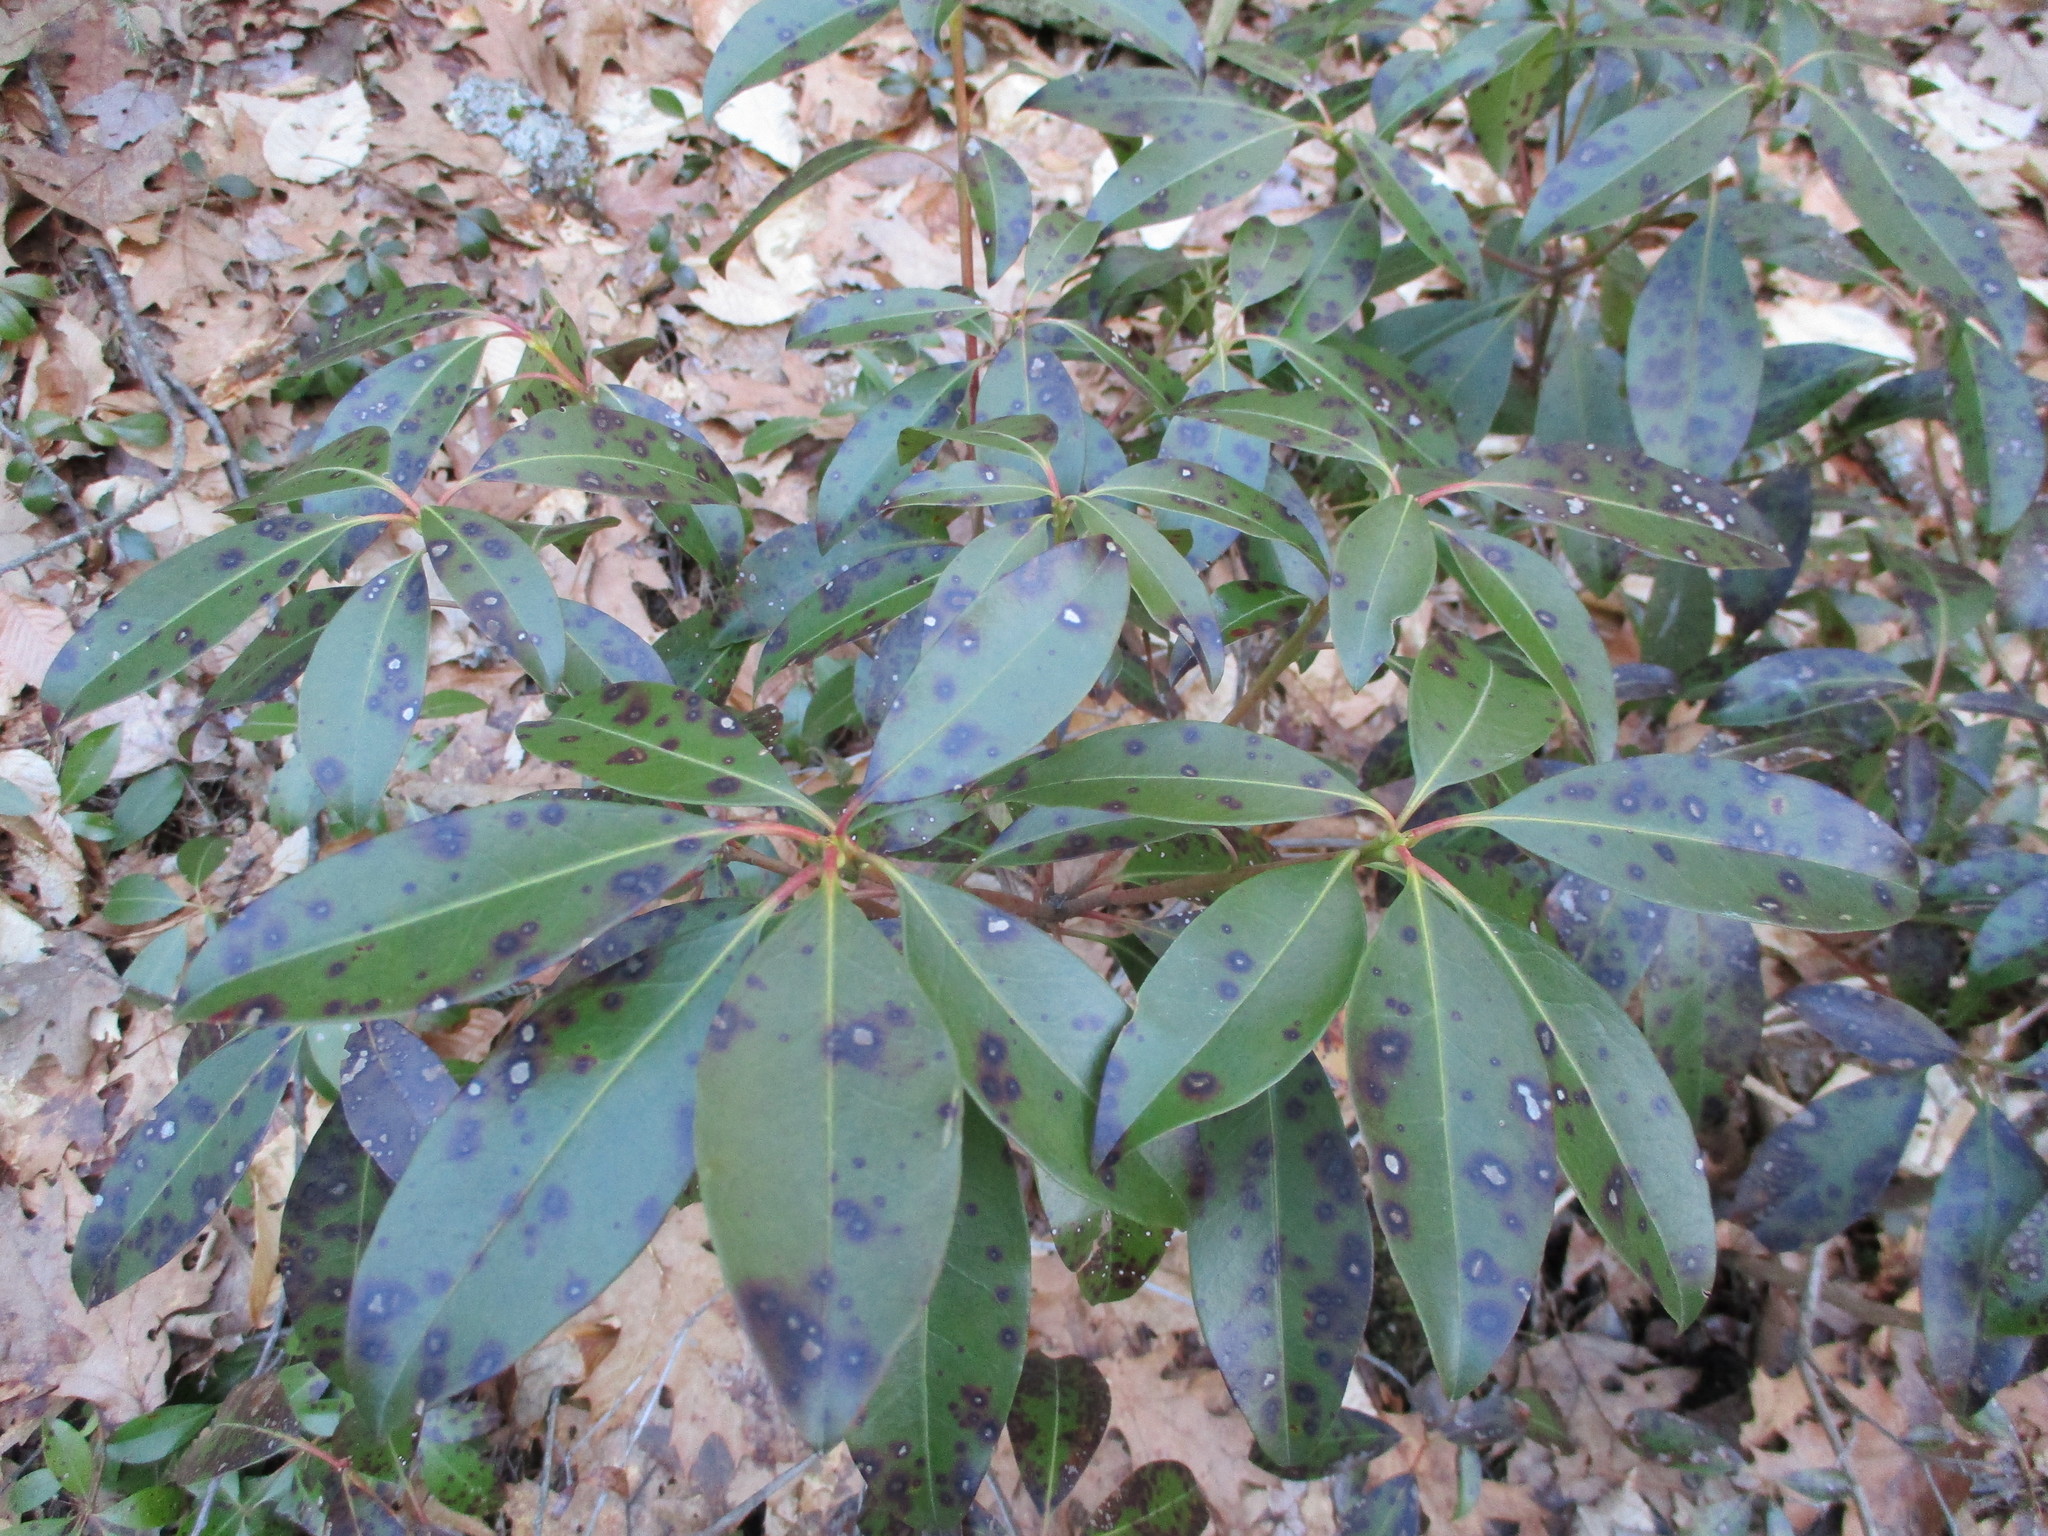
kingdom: Plantae
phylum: Tracheophyta
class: Magnoliopsida
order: Ericales
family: Ericaceae
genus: Kalmia
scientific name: Kalmia latifolia
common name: Mountain-laurel
